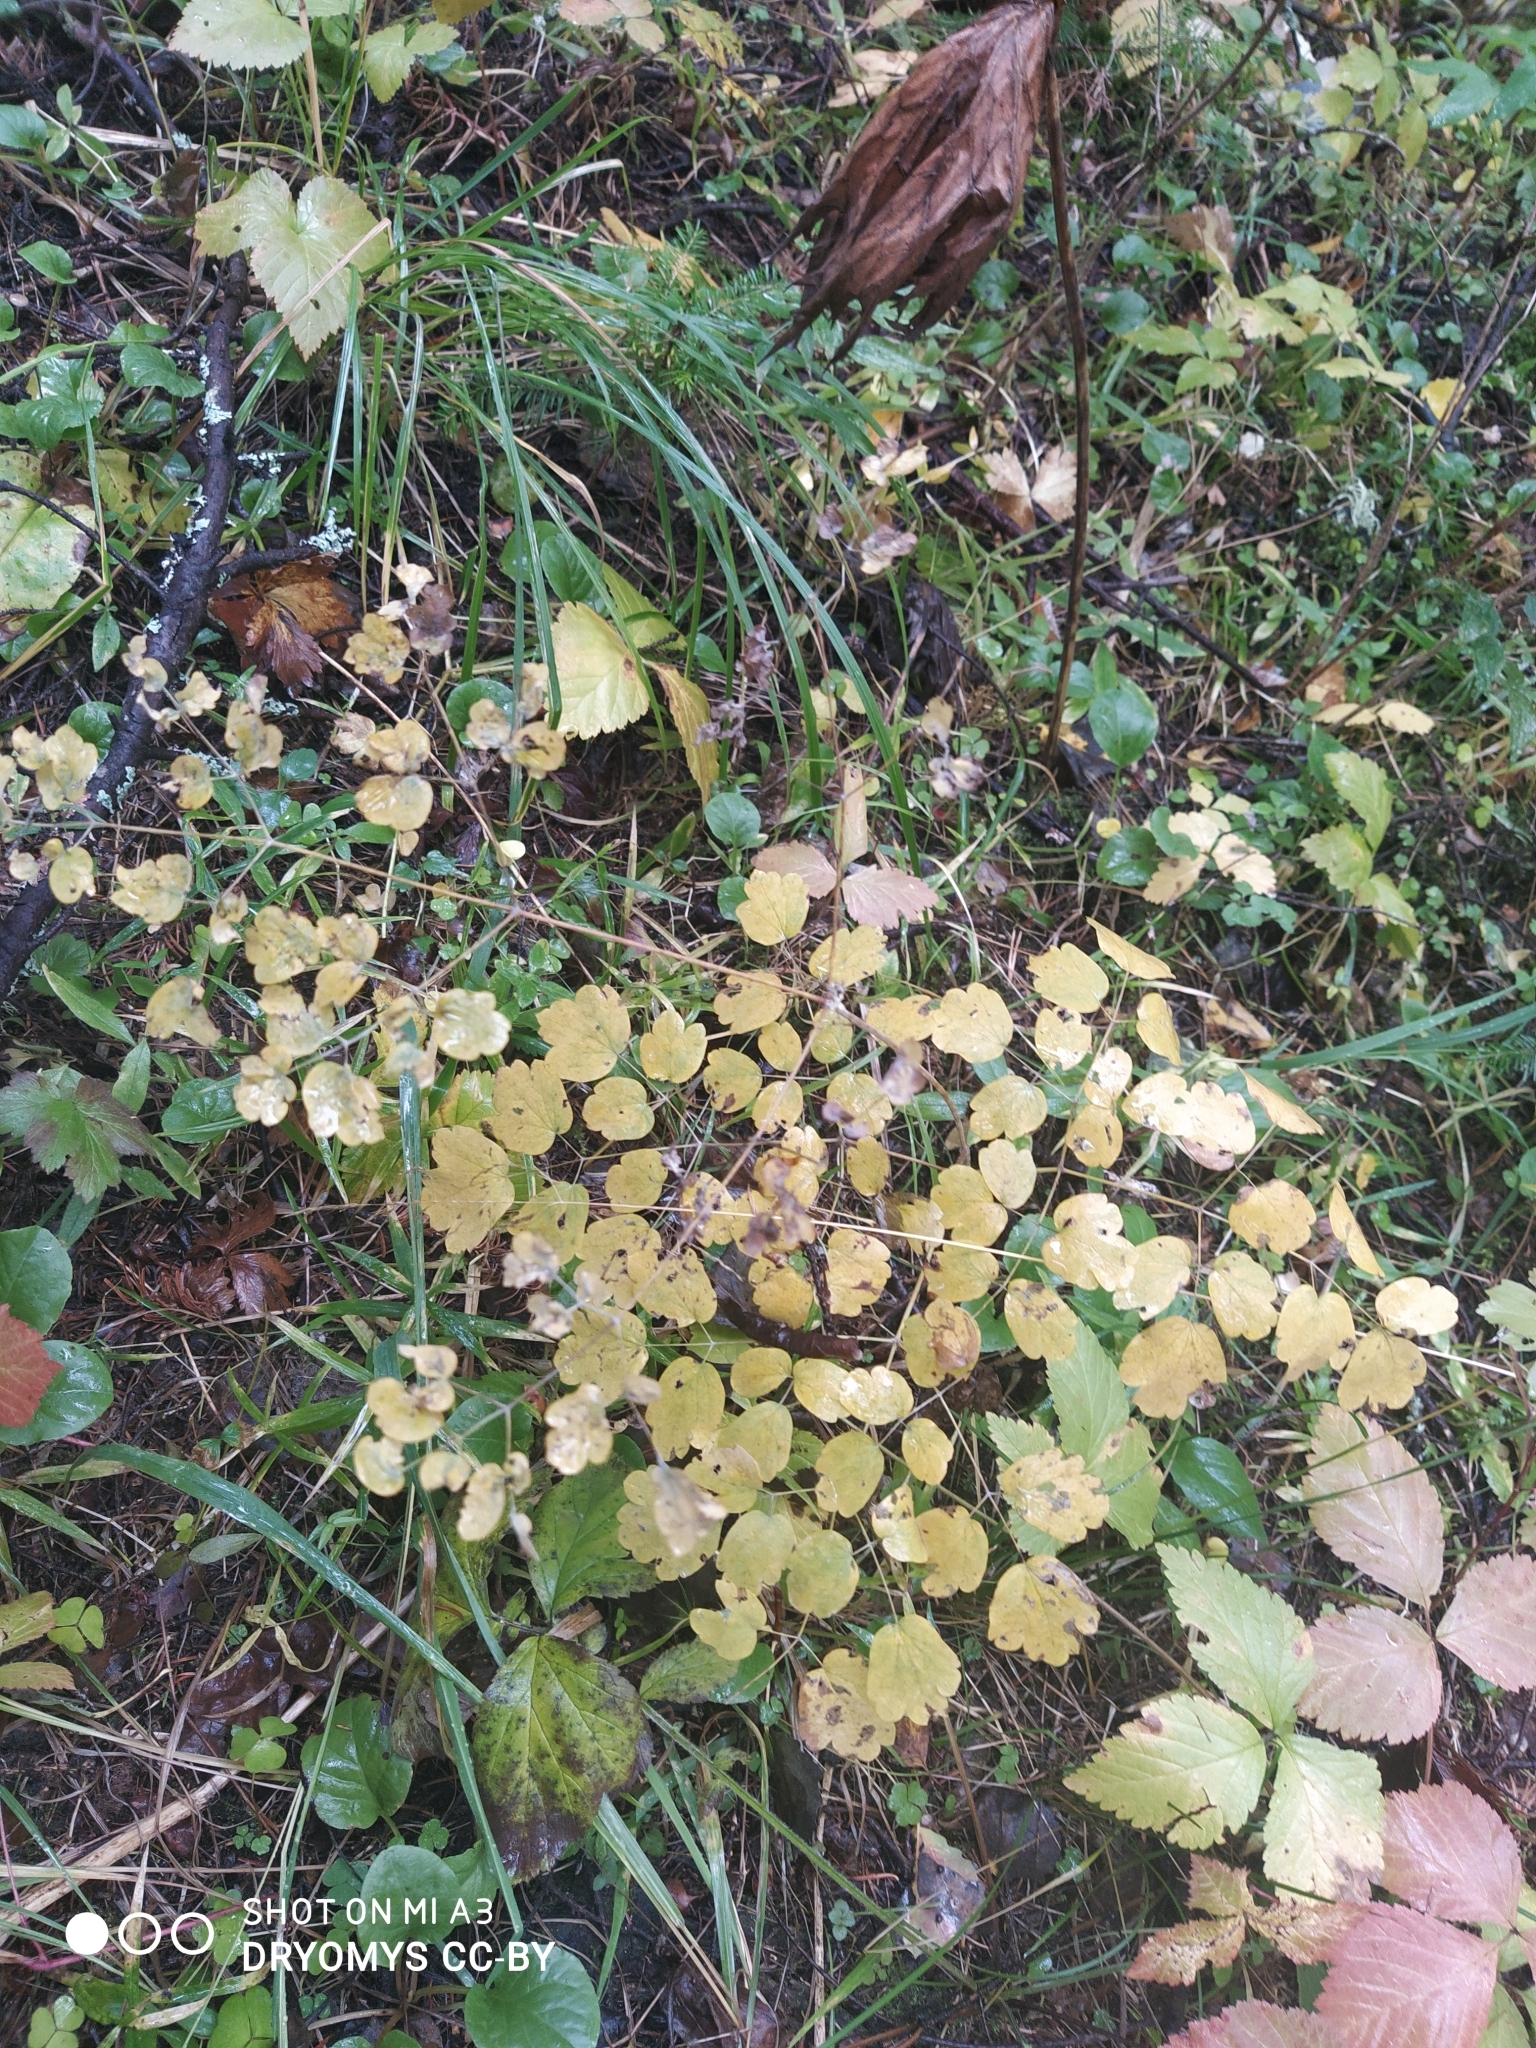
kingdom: Plantae
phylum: Tracheophyta
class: Magnoliopsida
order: Ranunculales
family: Ranunculaceae
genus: Thalictrum
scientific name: Thalictrum minus
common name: Lesser meadow-rue
